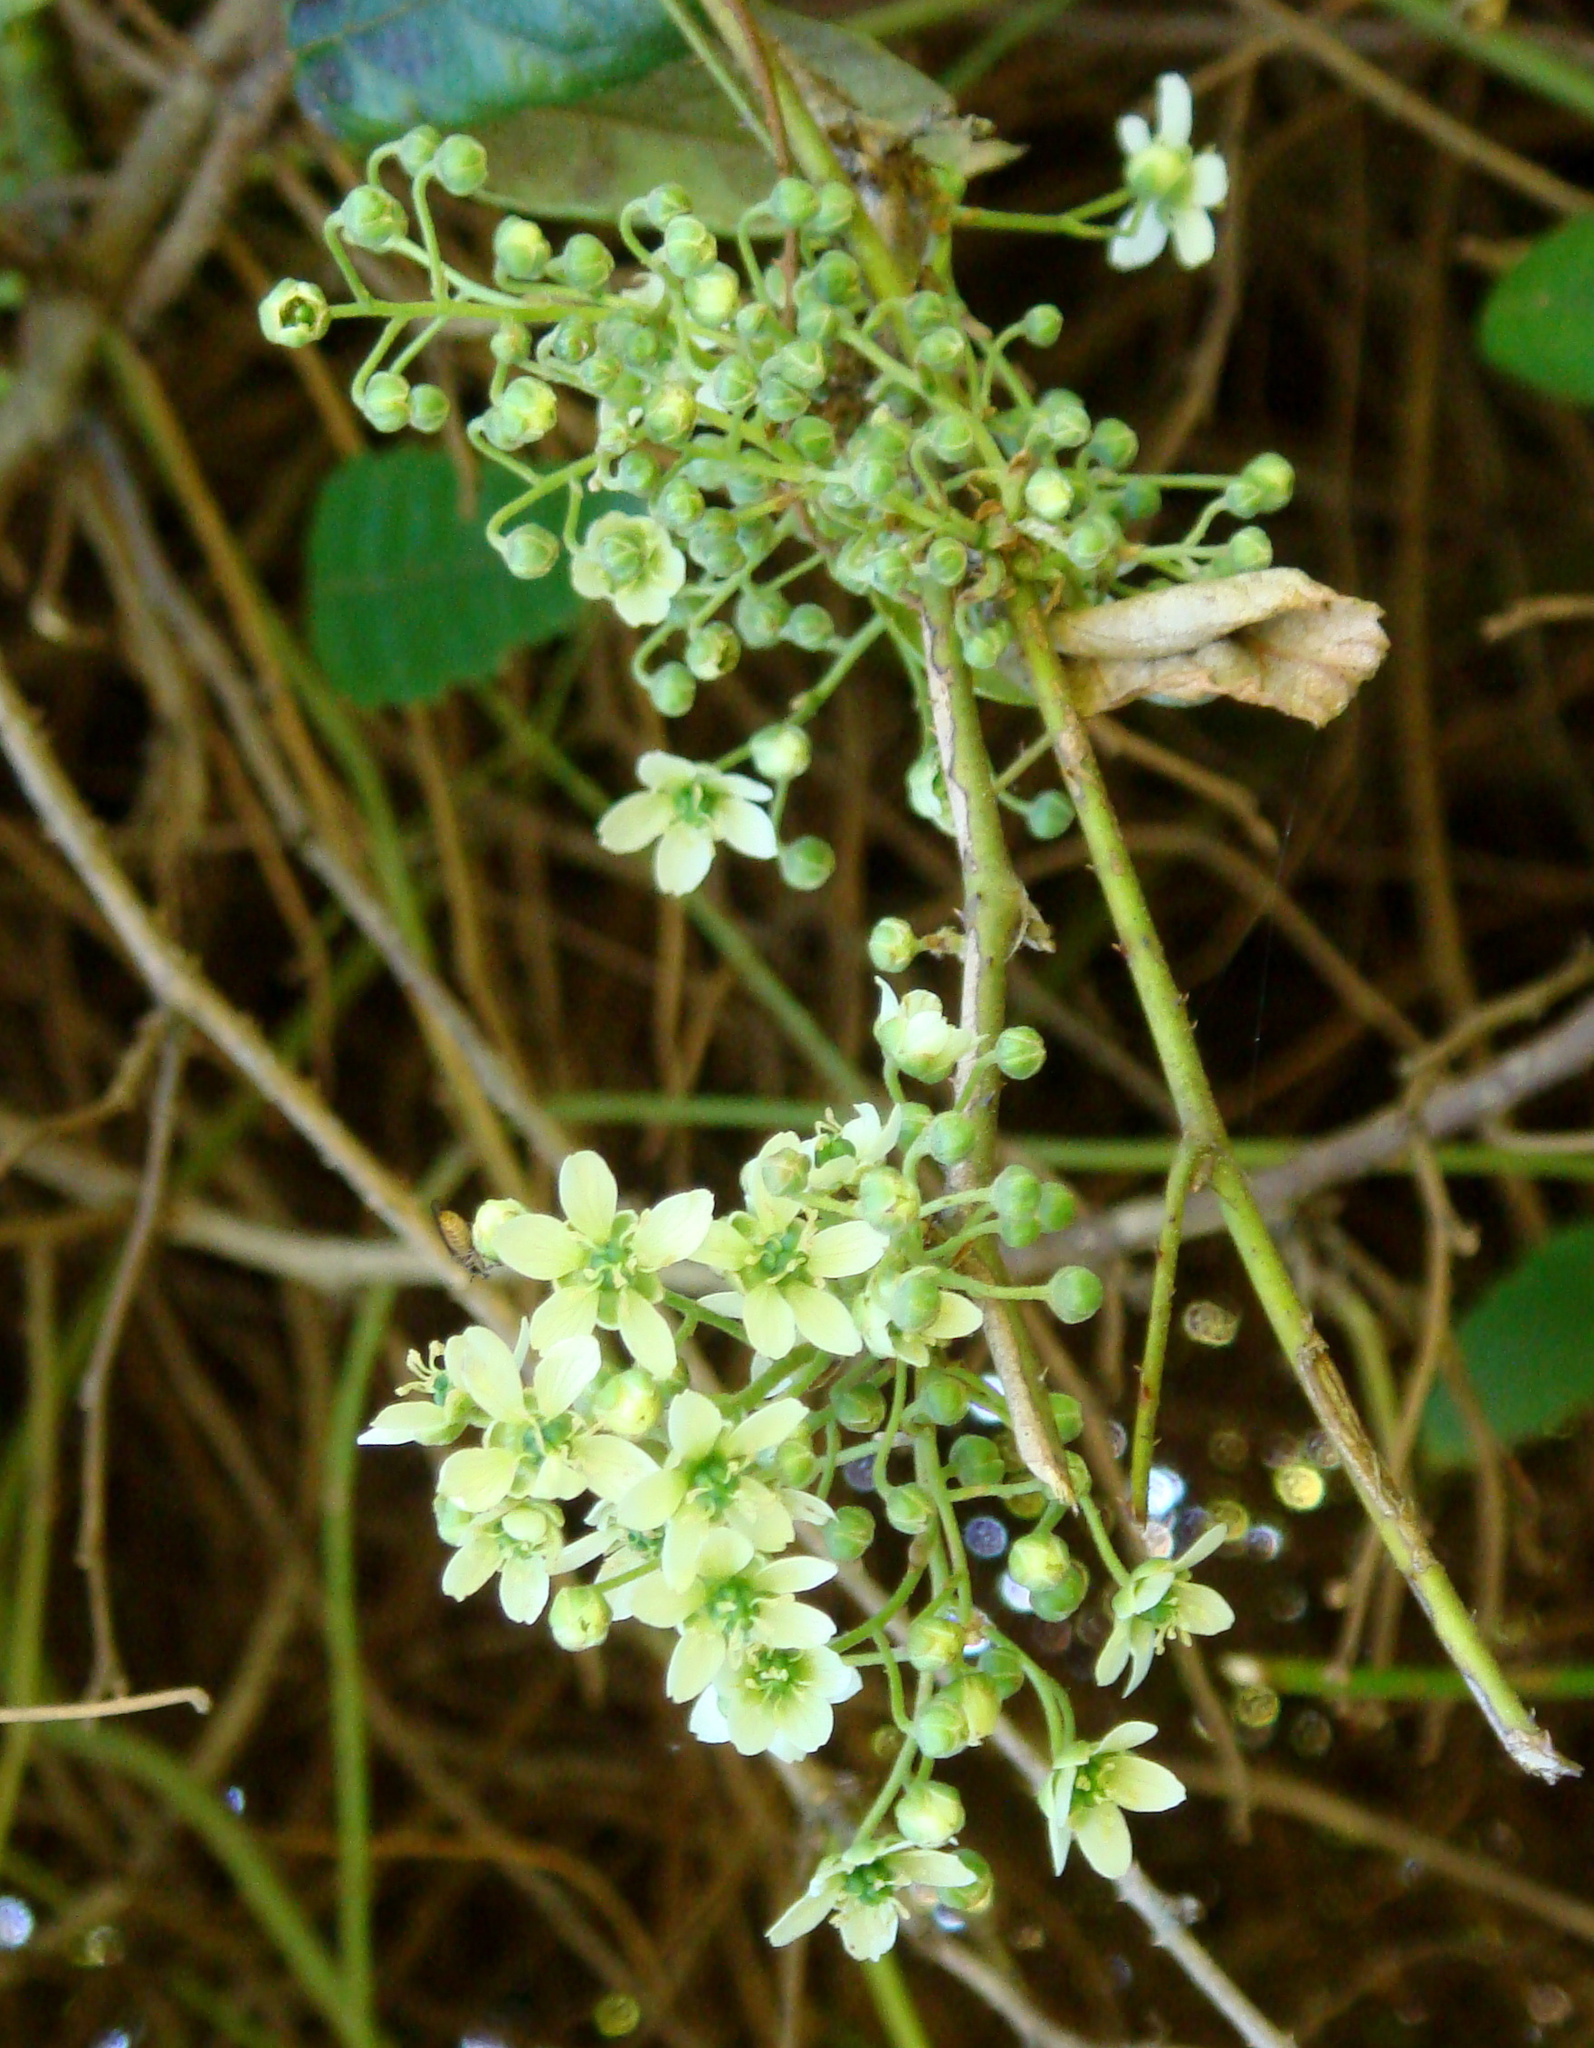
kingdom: Plantae
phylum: Tracheophyta
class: Magnoliopsida
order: Rosales
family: Rosaceae
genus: Rubus
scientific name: Rubus schmidelioides
